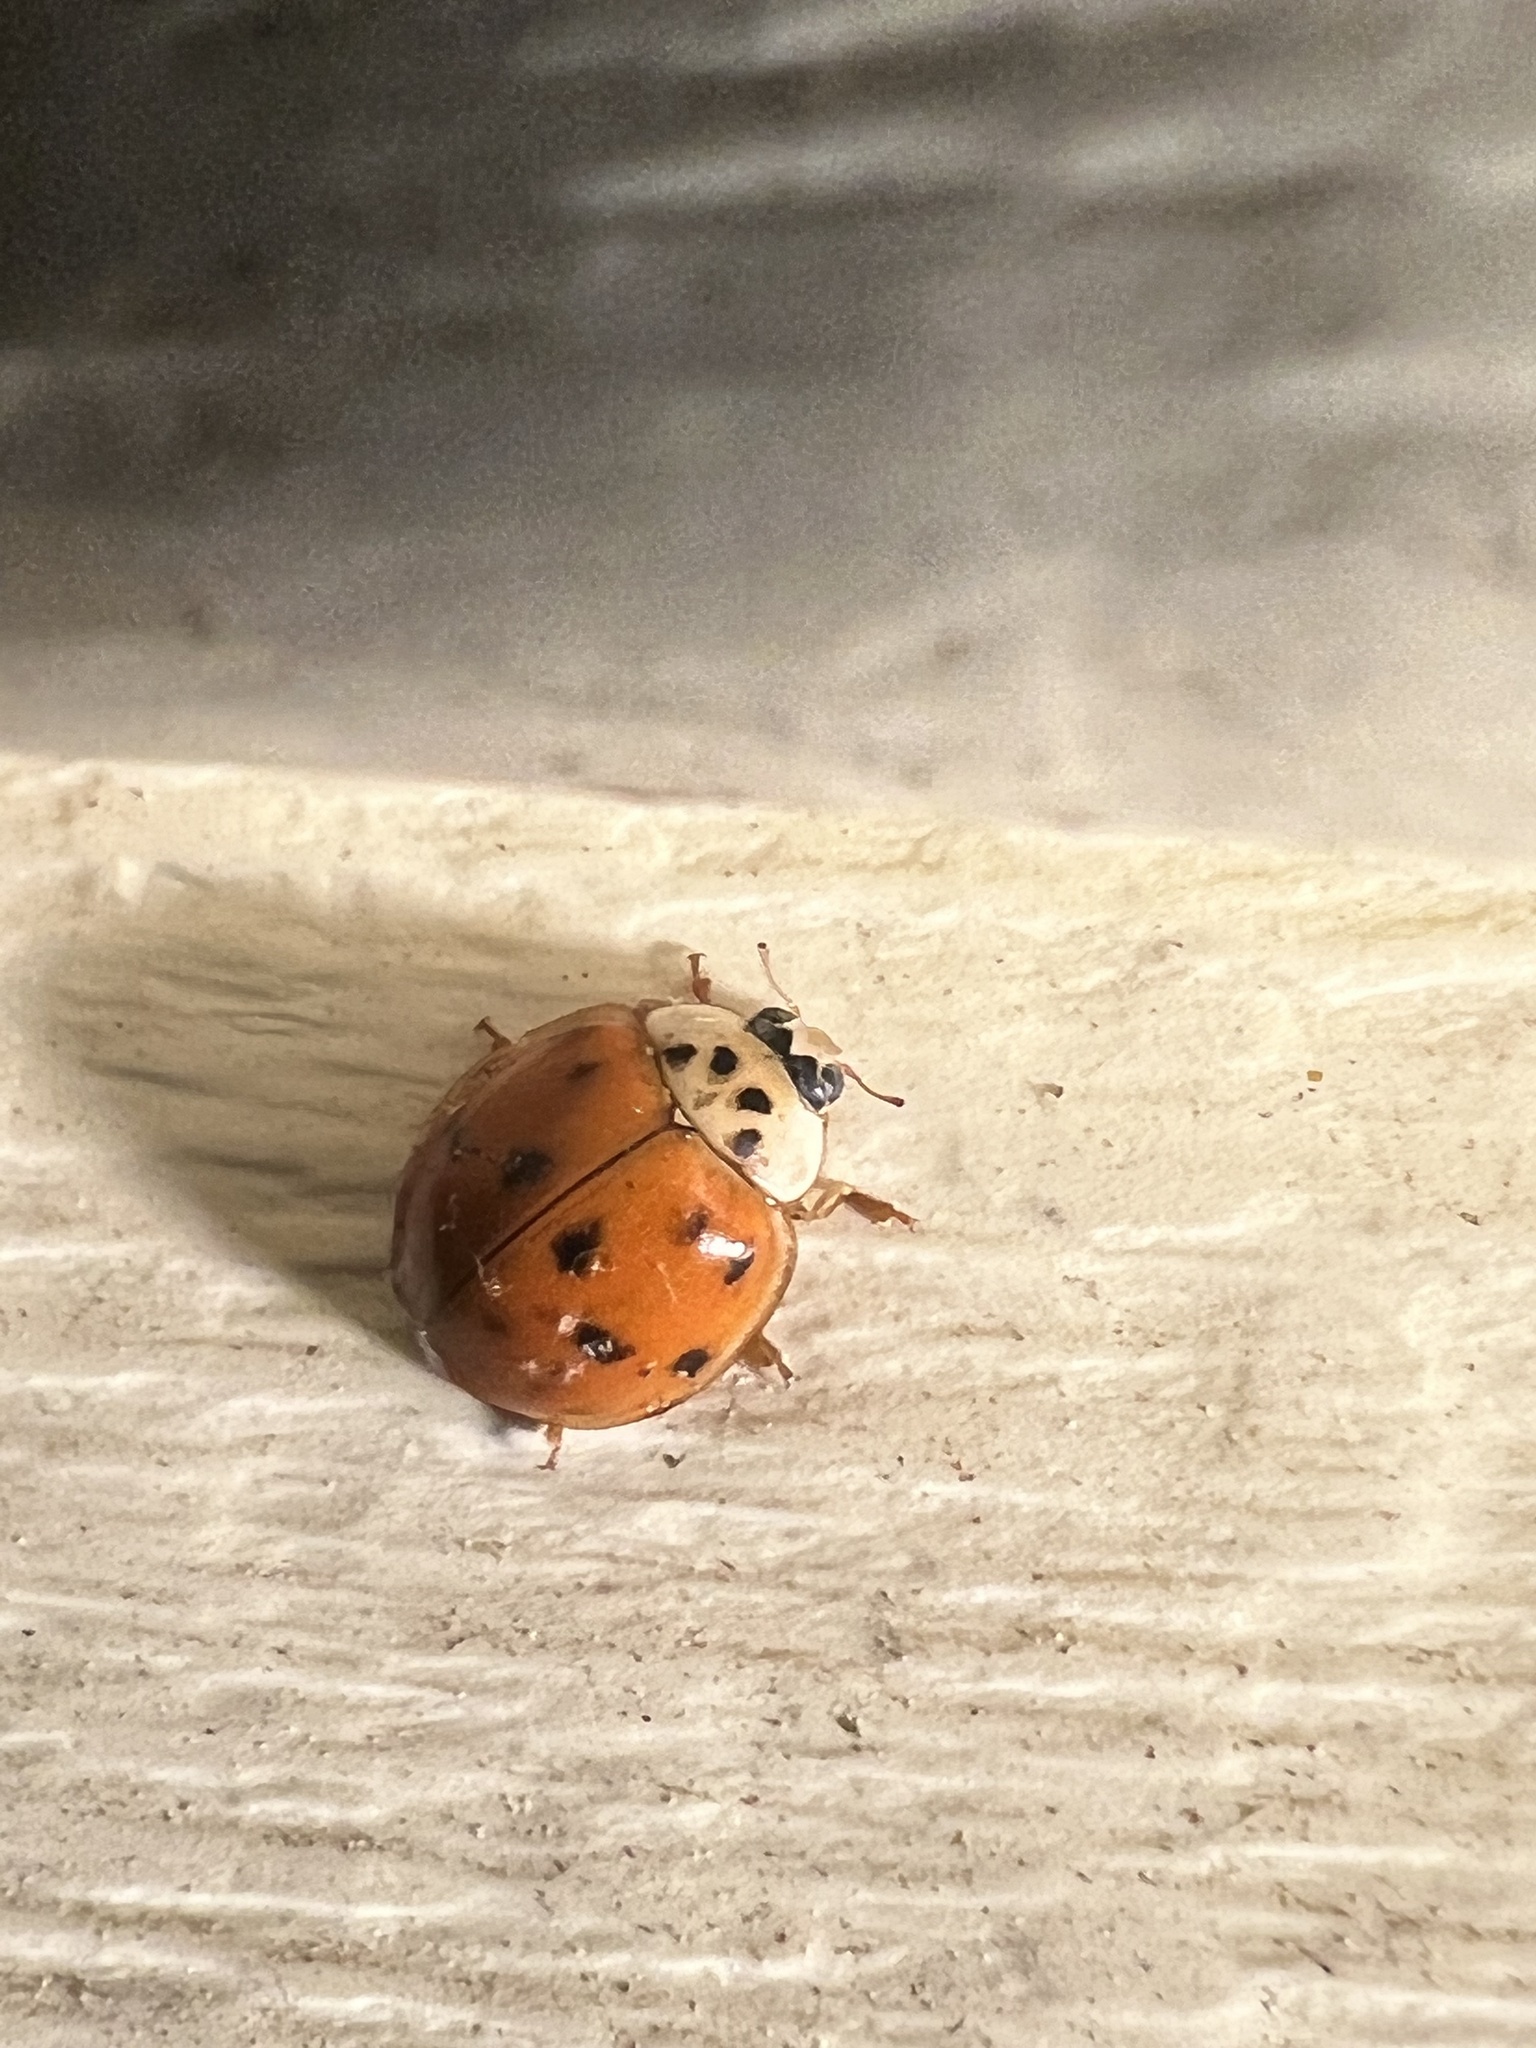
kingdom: Animalia
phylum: Arthropoda
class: Insecta
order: Coleoptera
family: Coccinellidae
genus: Harmonia
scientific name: Harmonia axyridis
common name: Harlequin ladybird
